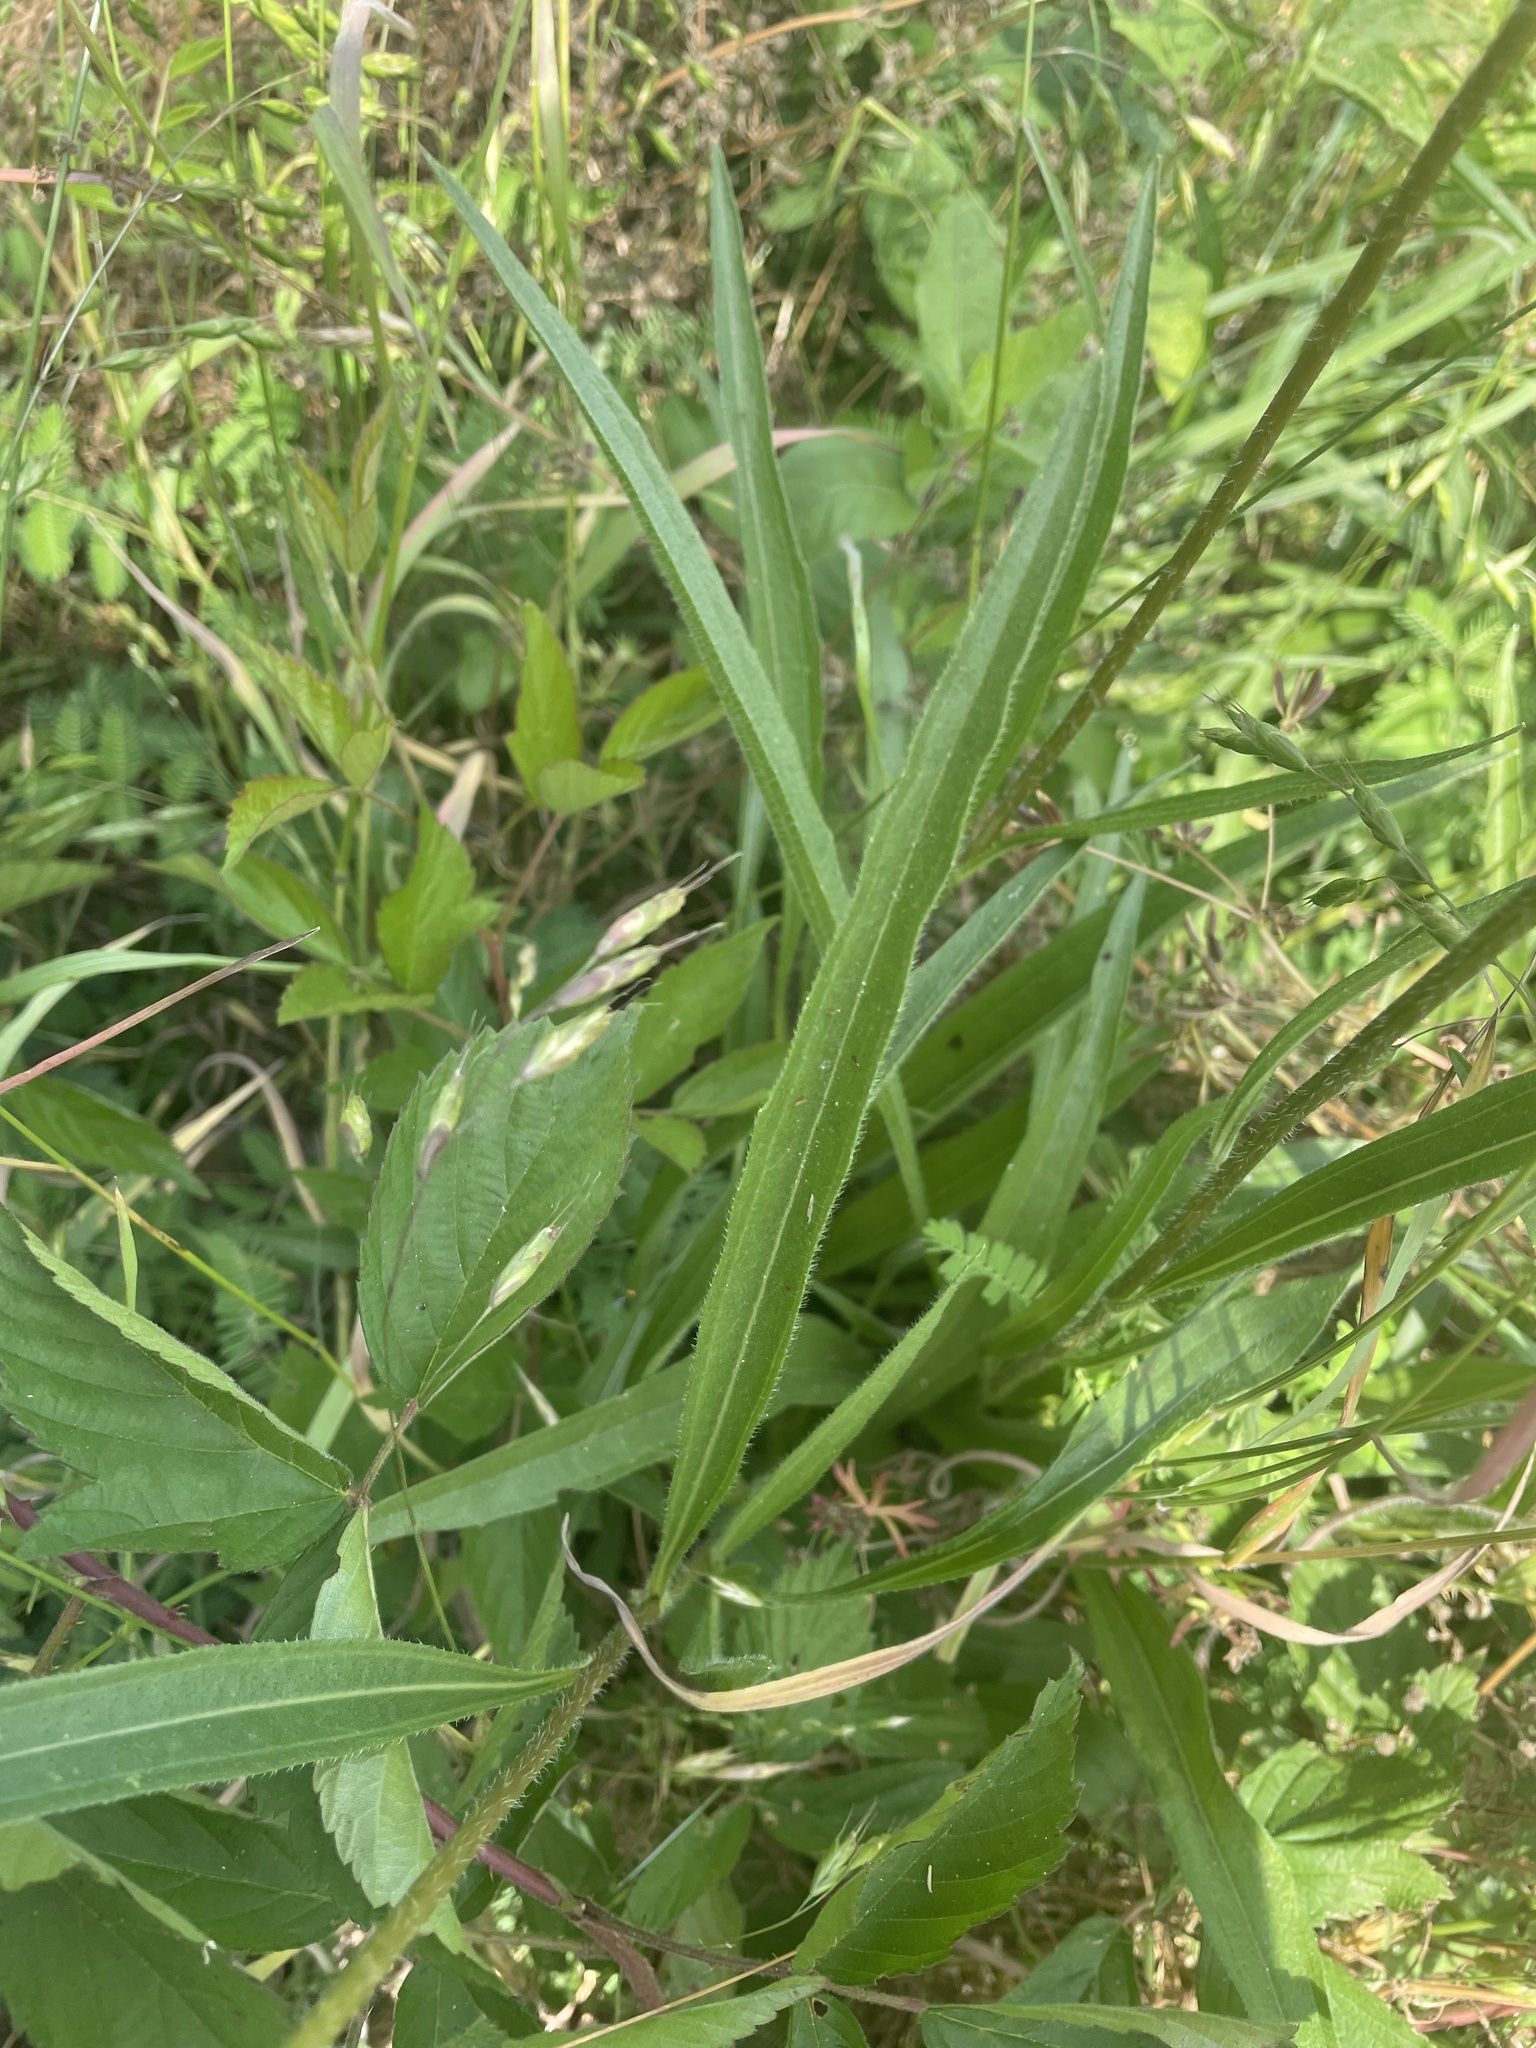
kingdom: Plantae
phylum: Tracheophyta
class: Magnoliopsida
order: Asterales
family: Asteraceae
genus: Echinacea
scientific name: Echinacea pallida
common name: Pale echinacea
